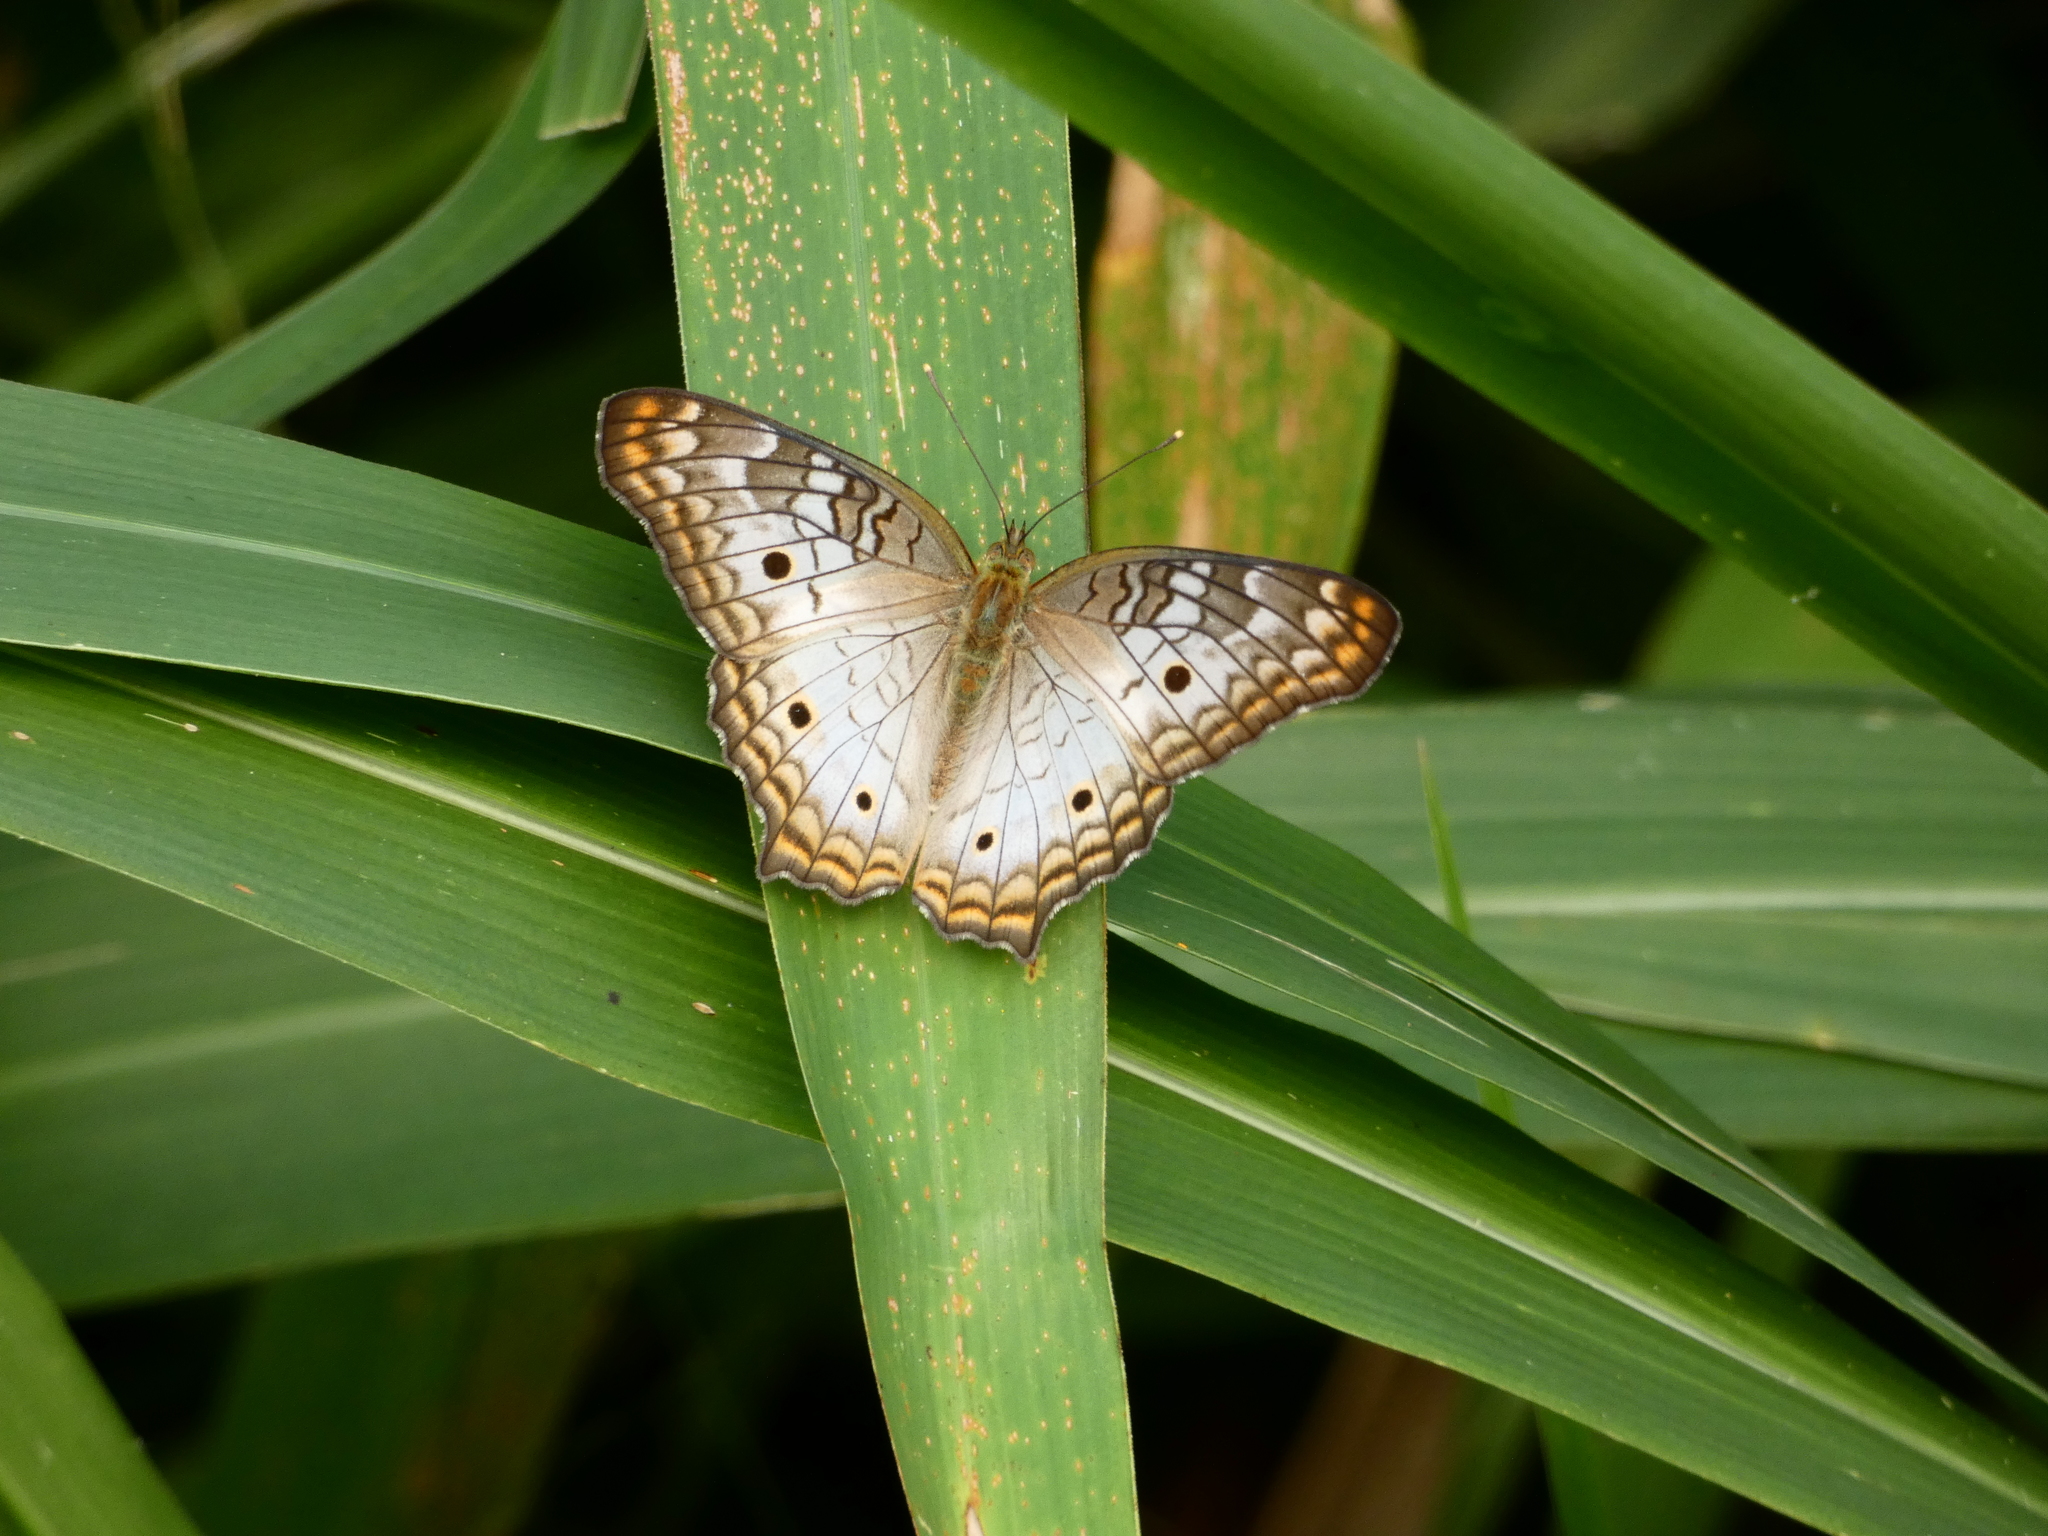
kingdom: Animalia
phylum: Arthropoda
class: Insecta
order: Lepidoptera
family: Nymphalidae
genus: Anartia
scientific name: Anartia jatrophae
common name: White peacock
